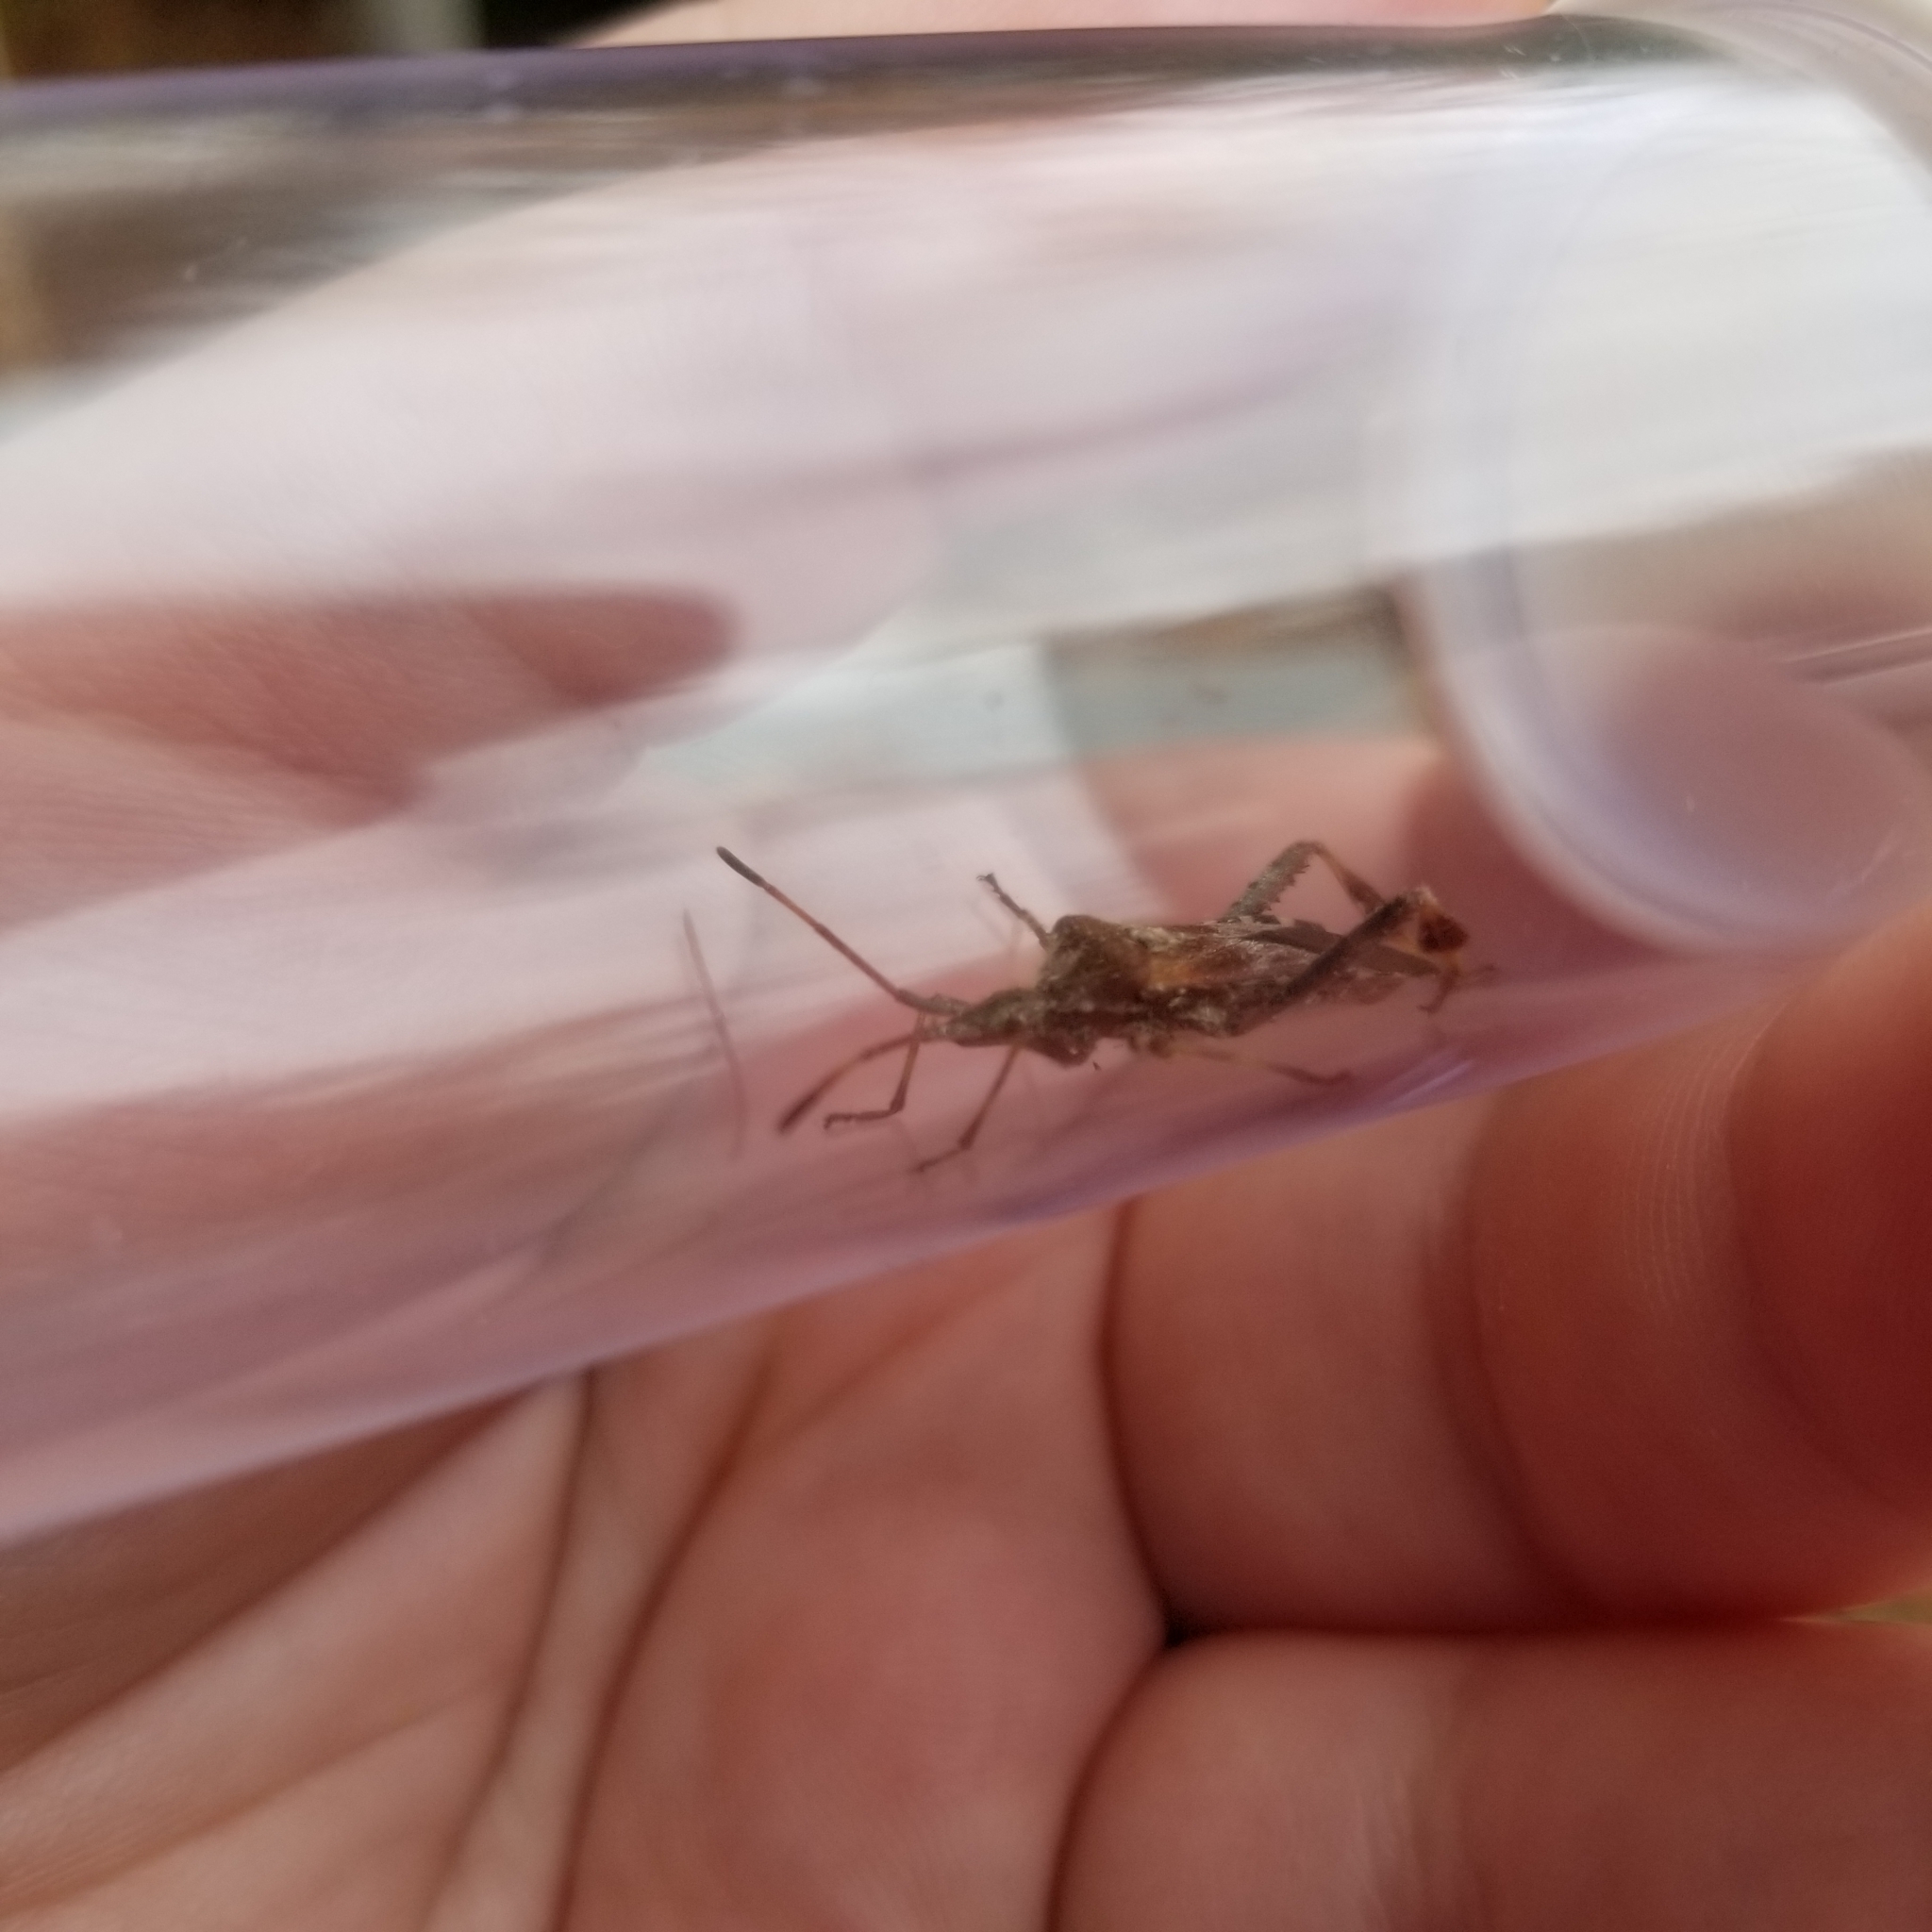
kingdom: Animalia
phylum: Arthropoda
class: Insecta
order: Hemiptera
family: Coreidae
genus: Leptoglossus
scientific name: Leptoglossus occidentalis
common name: Western conifer-seed bug
